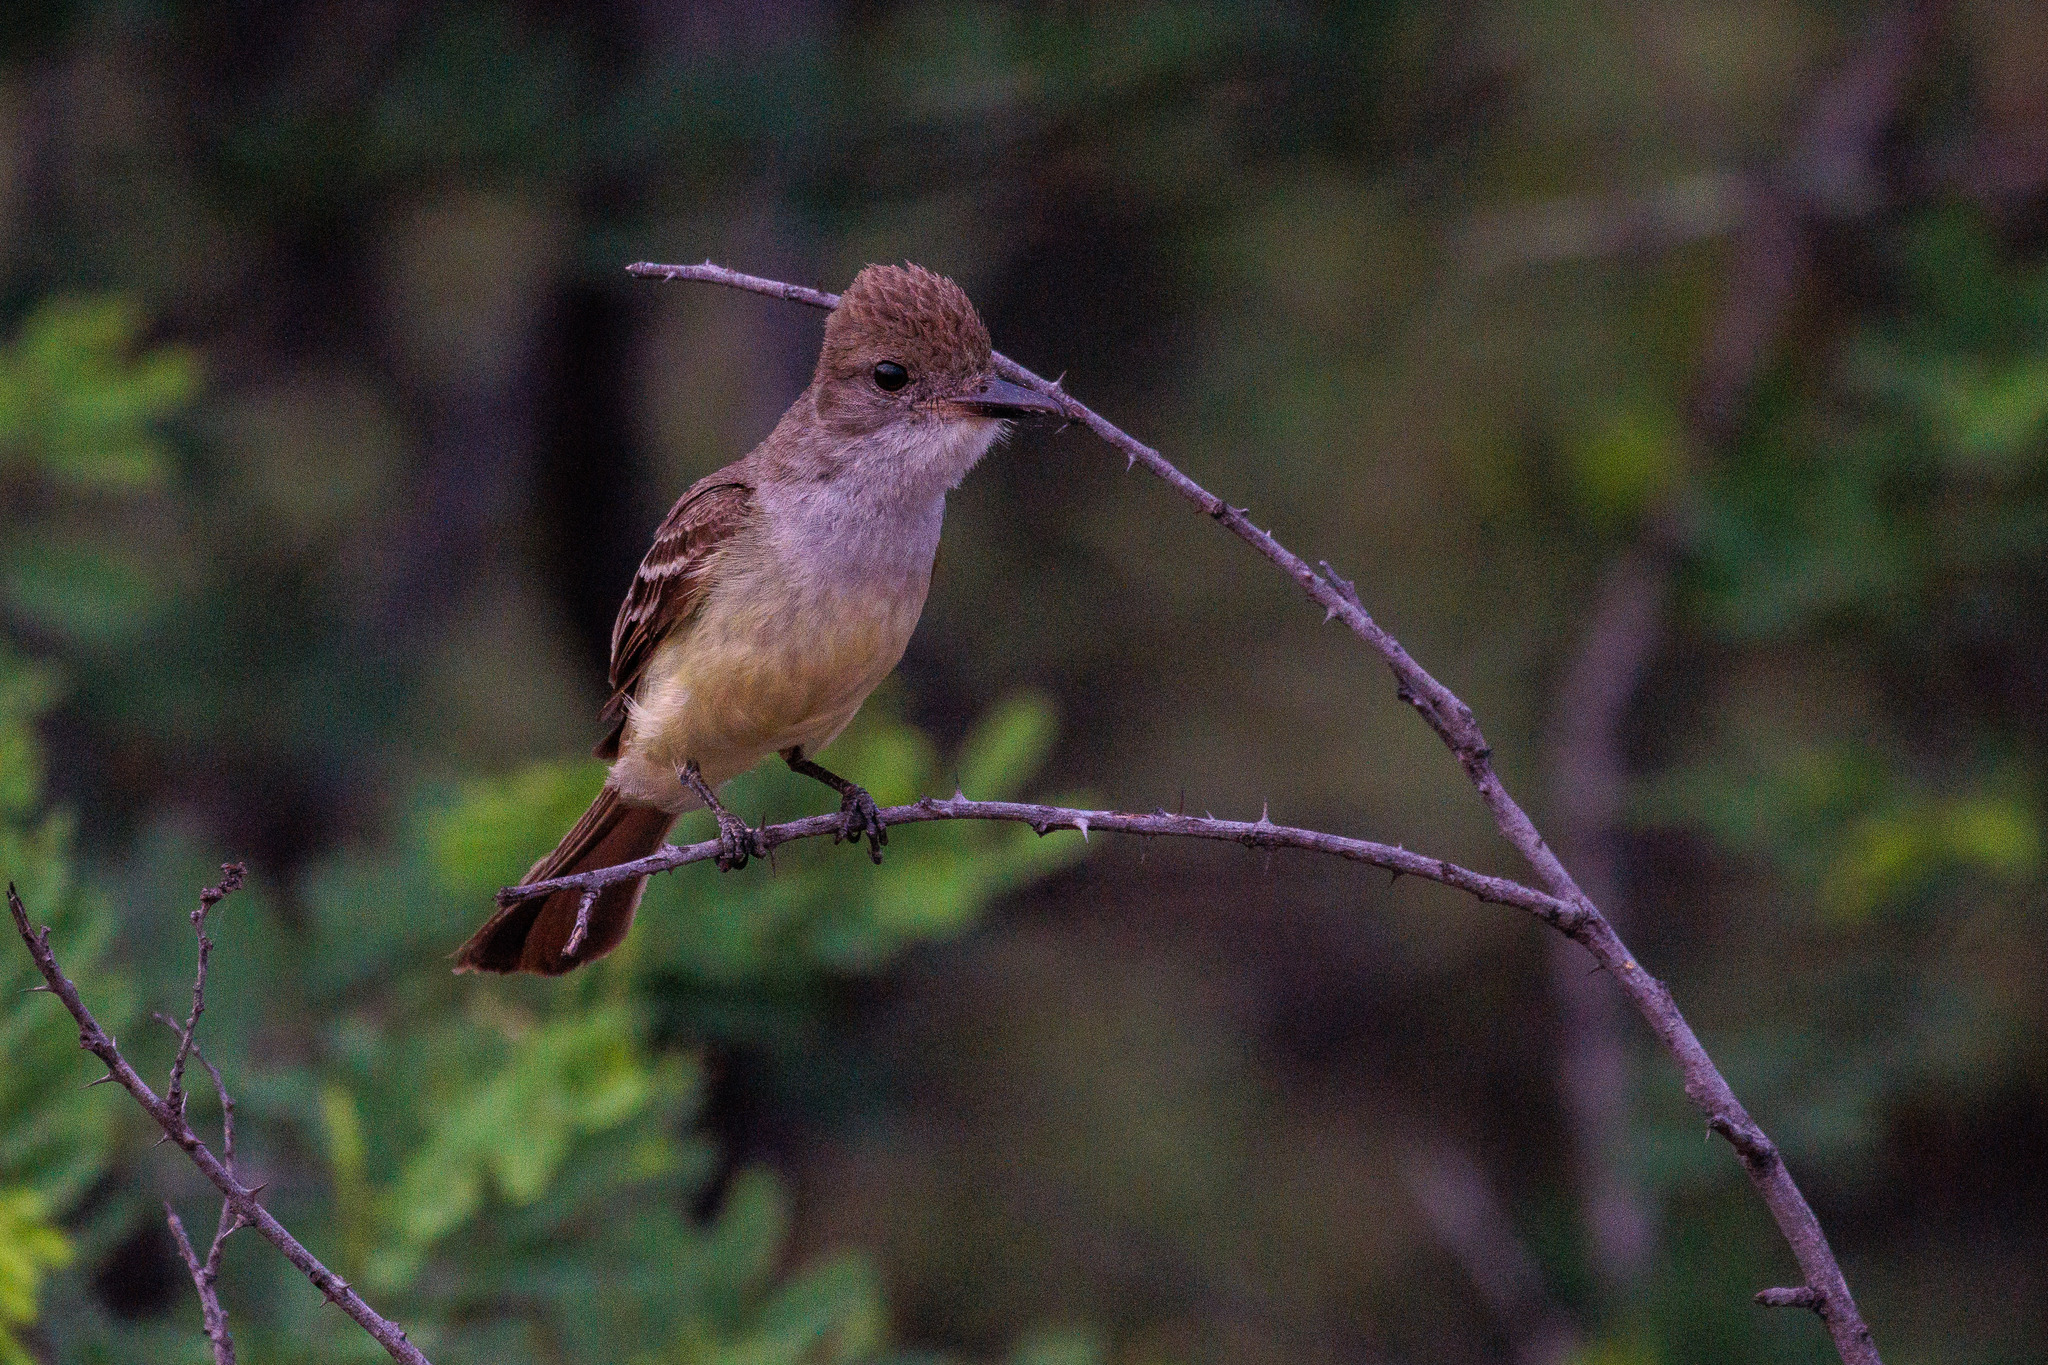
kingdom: Animalia
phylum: Chordata
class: Aves
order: Passeriformes
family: Tyrannidae
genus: Myiarchus
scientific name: Myiarchus tyrannulus
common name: Brown-crested flycatcher
